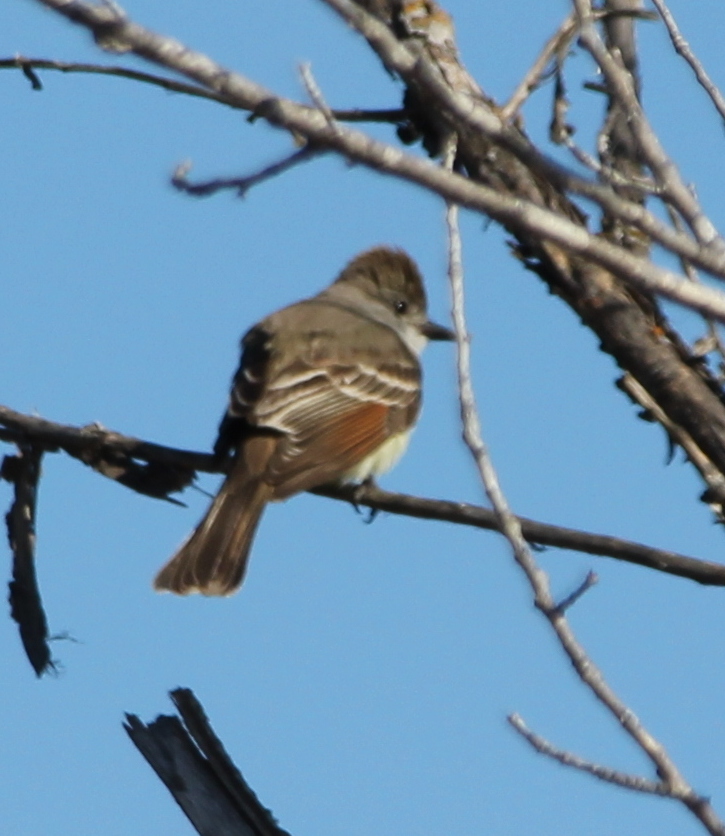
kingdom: Animalia
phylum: Chordata
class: Aves
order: Passeriformes
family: Tyrannidae
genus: Myiarchus
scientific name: Myiarchus cinerascens
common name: Ash-throated flycatcher
